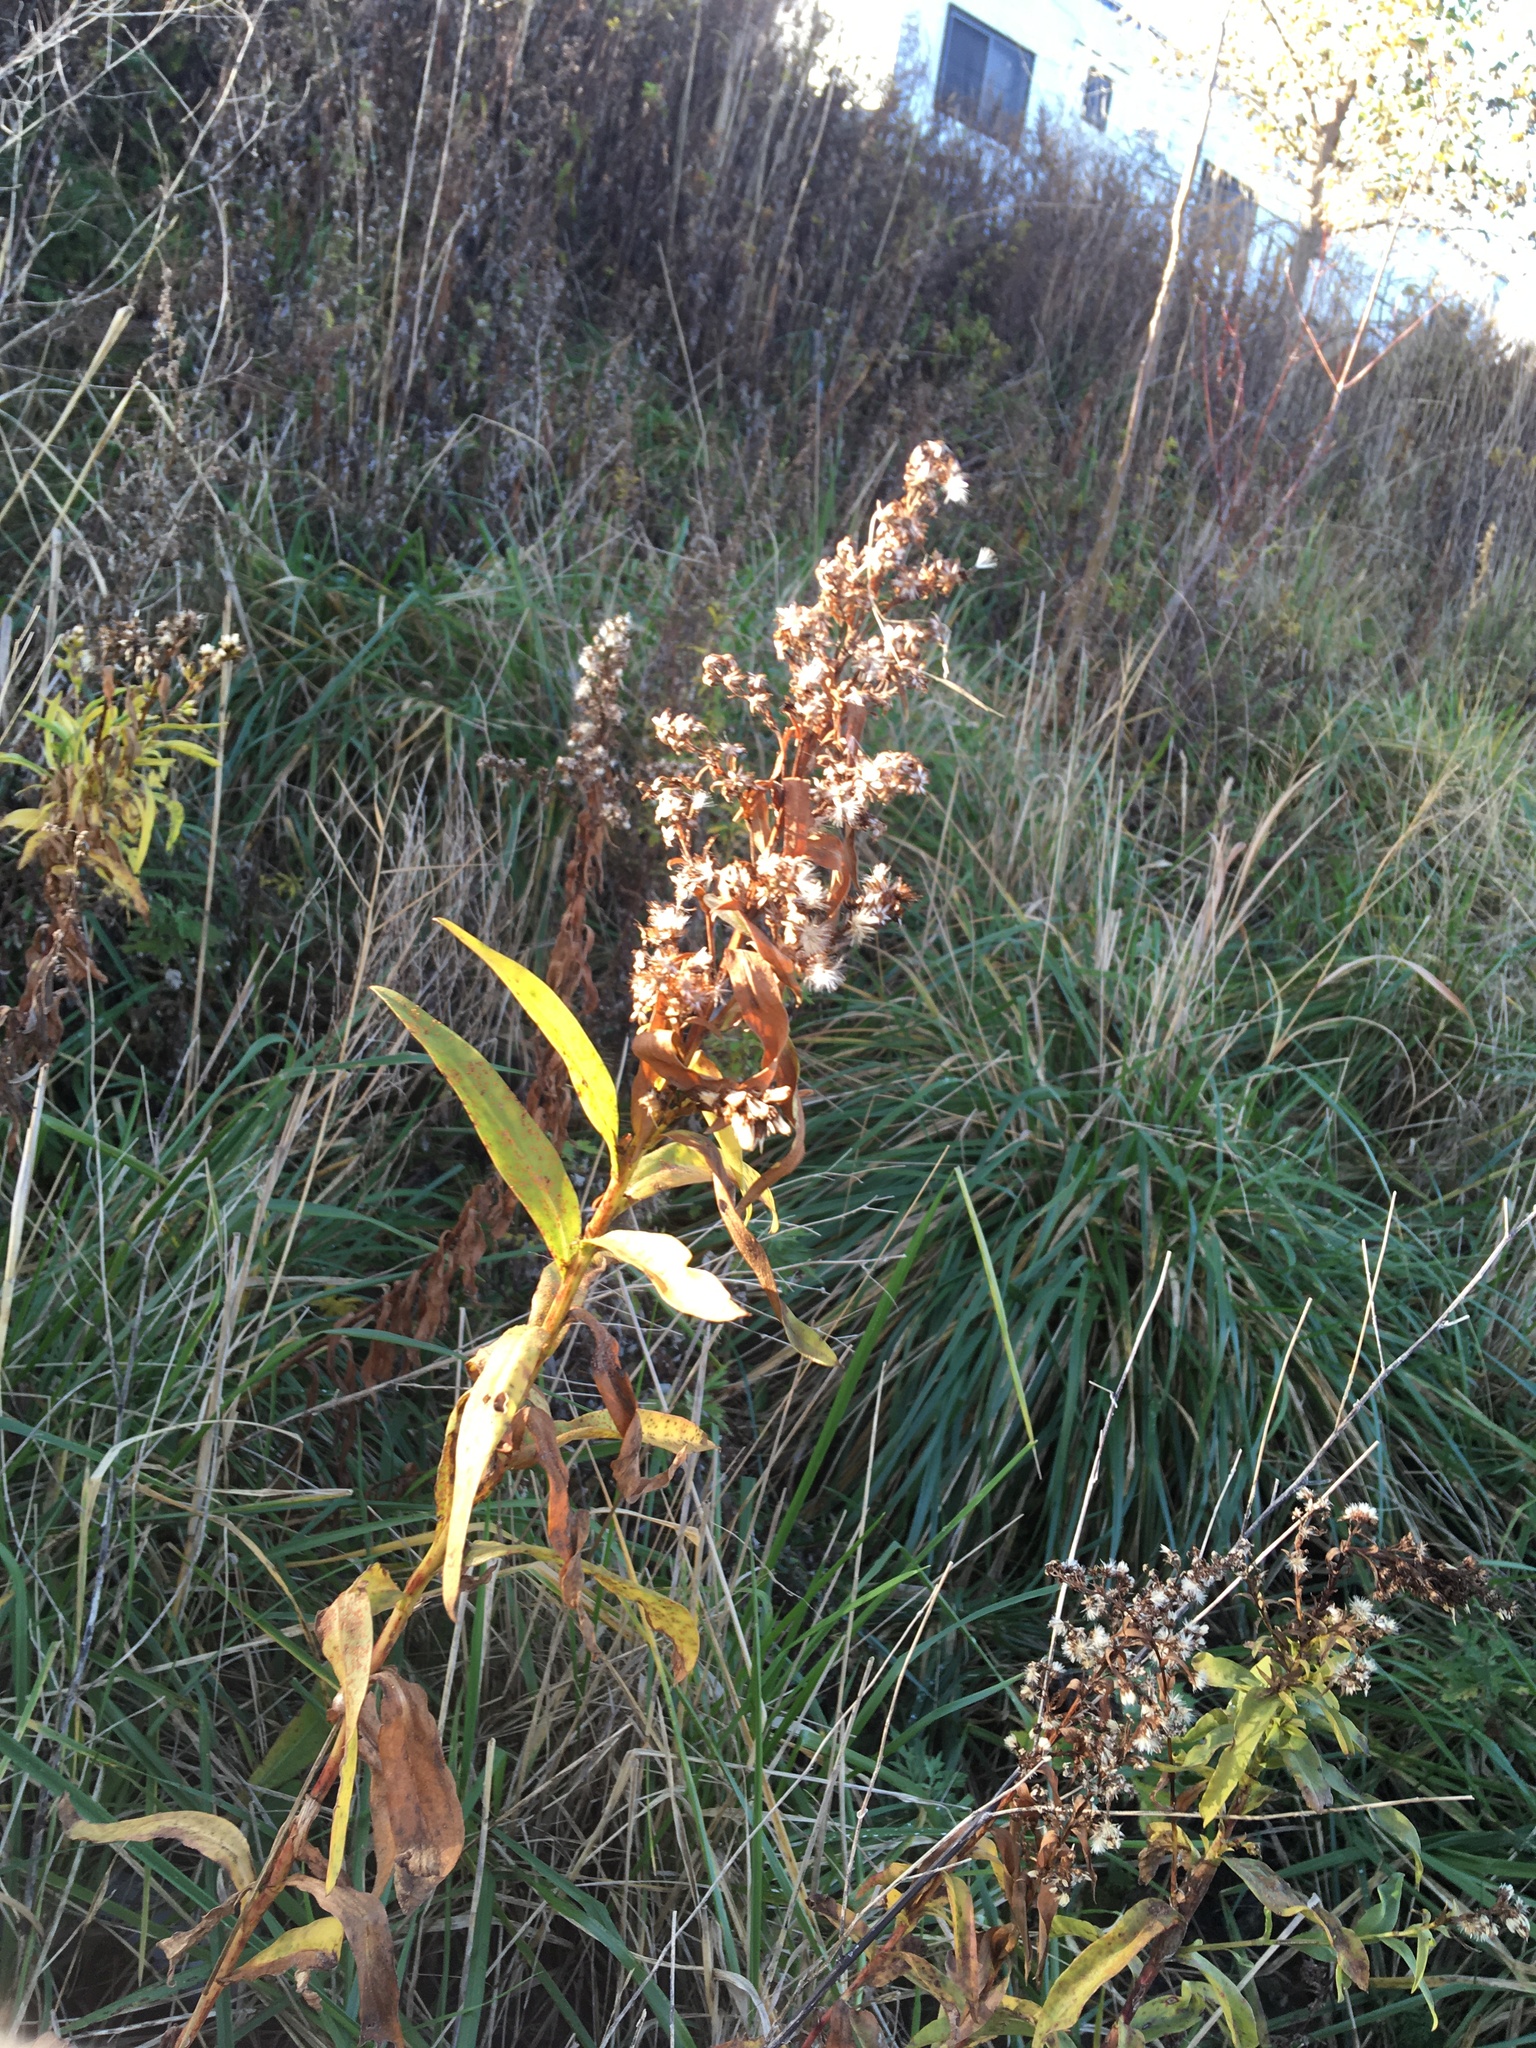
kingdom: Plantae
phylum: Tracheophyta
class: Magnoliopsida
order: Asterales
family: Asteraceae
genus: Solidago
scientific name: Solidago sempervirens
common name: Salt-marsh goldenrod
